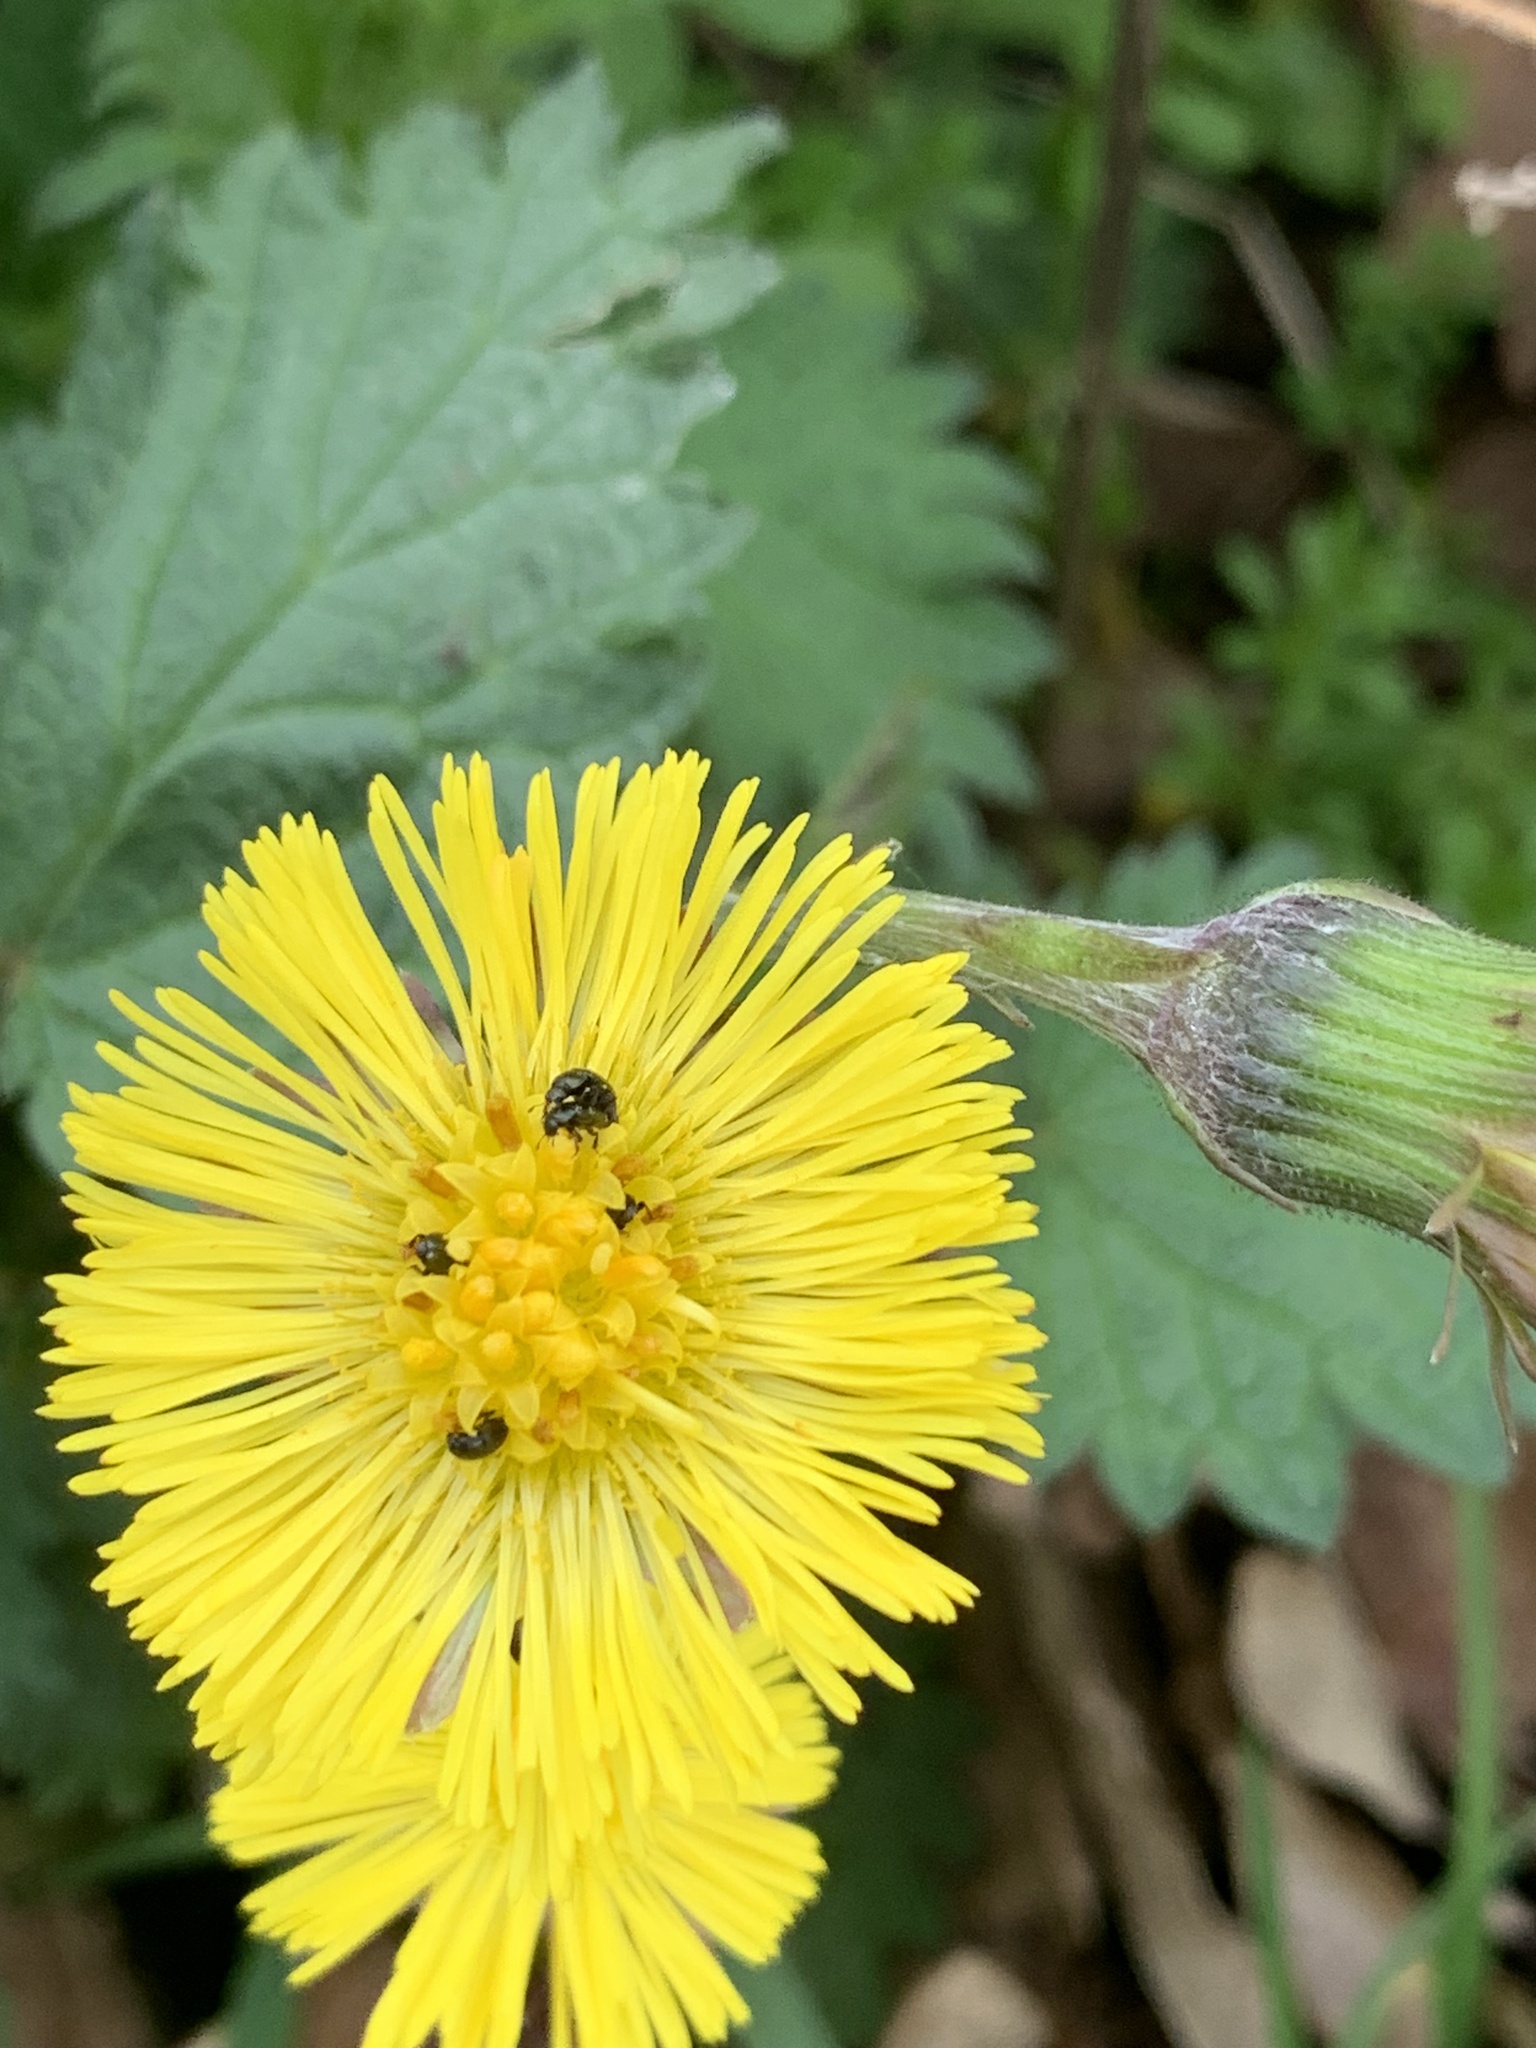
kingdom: Plantae
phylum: Tracheophyta
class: Magnoliopsida
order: Asterales
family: Asteraceae
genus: Tussilago
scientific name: Tussilago farfara
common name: Coltsfoot
